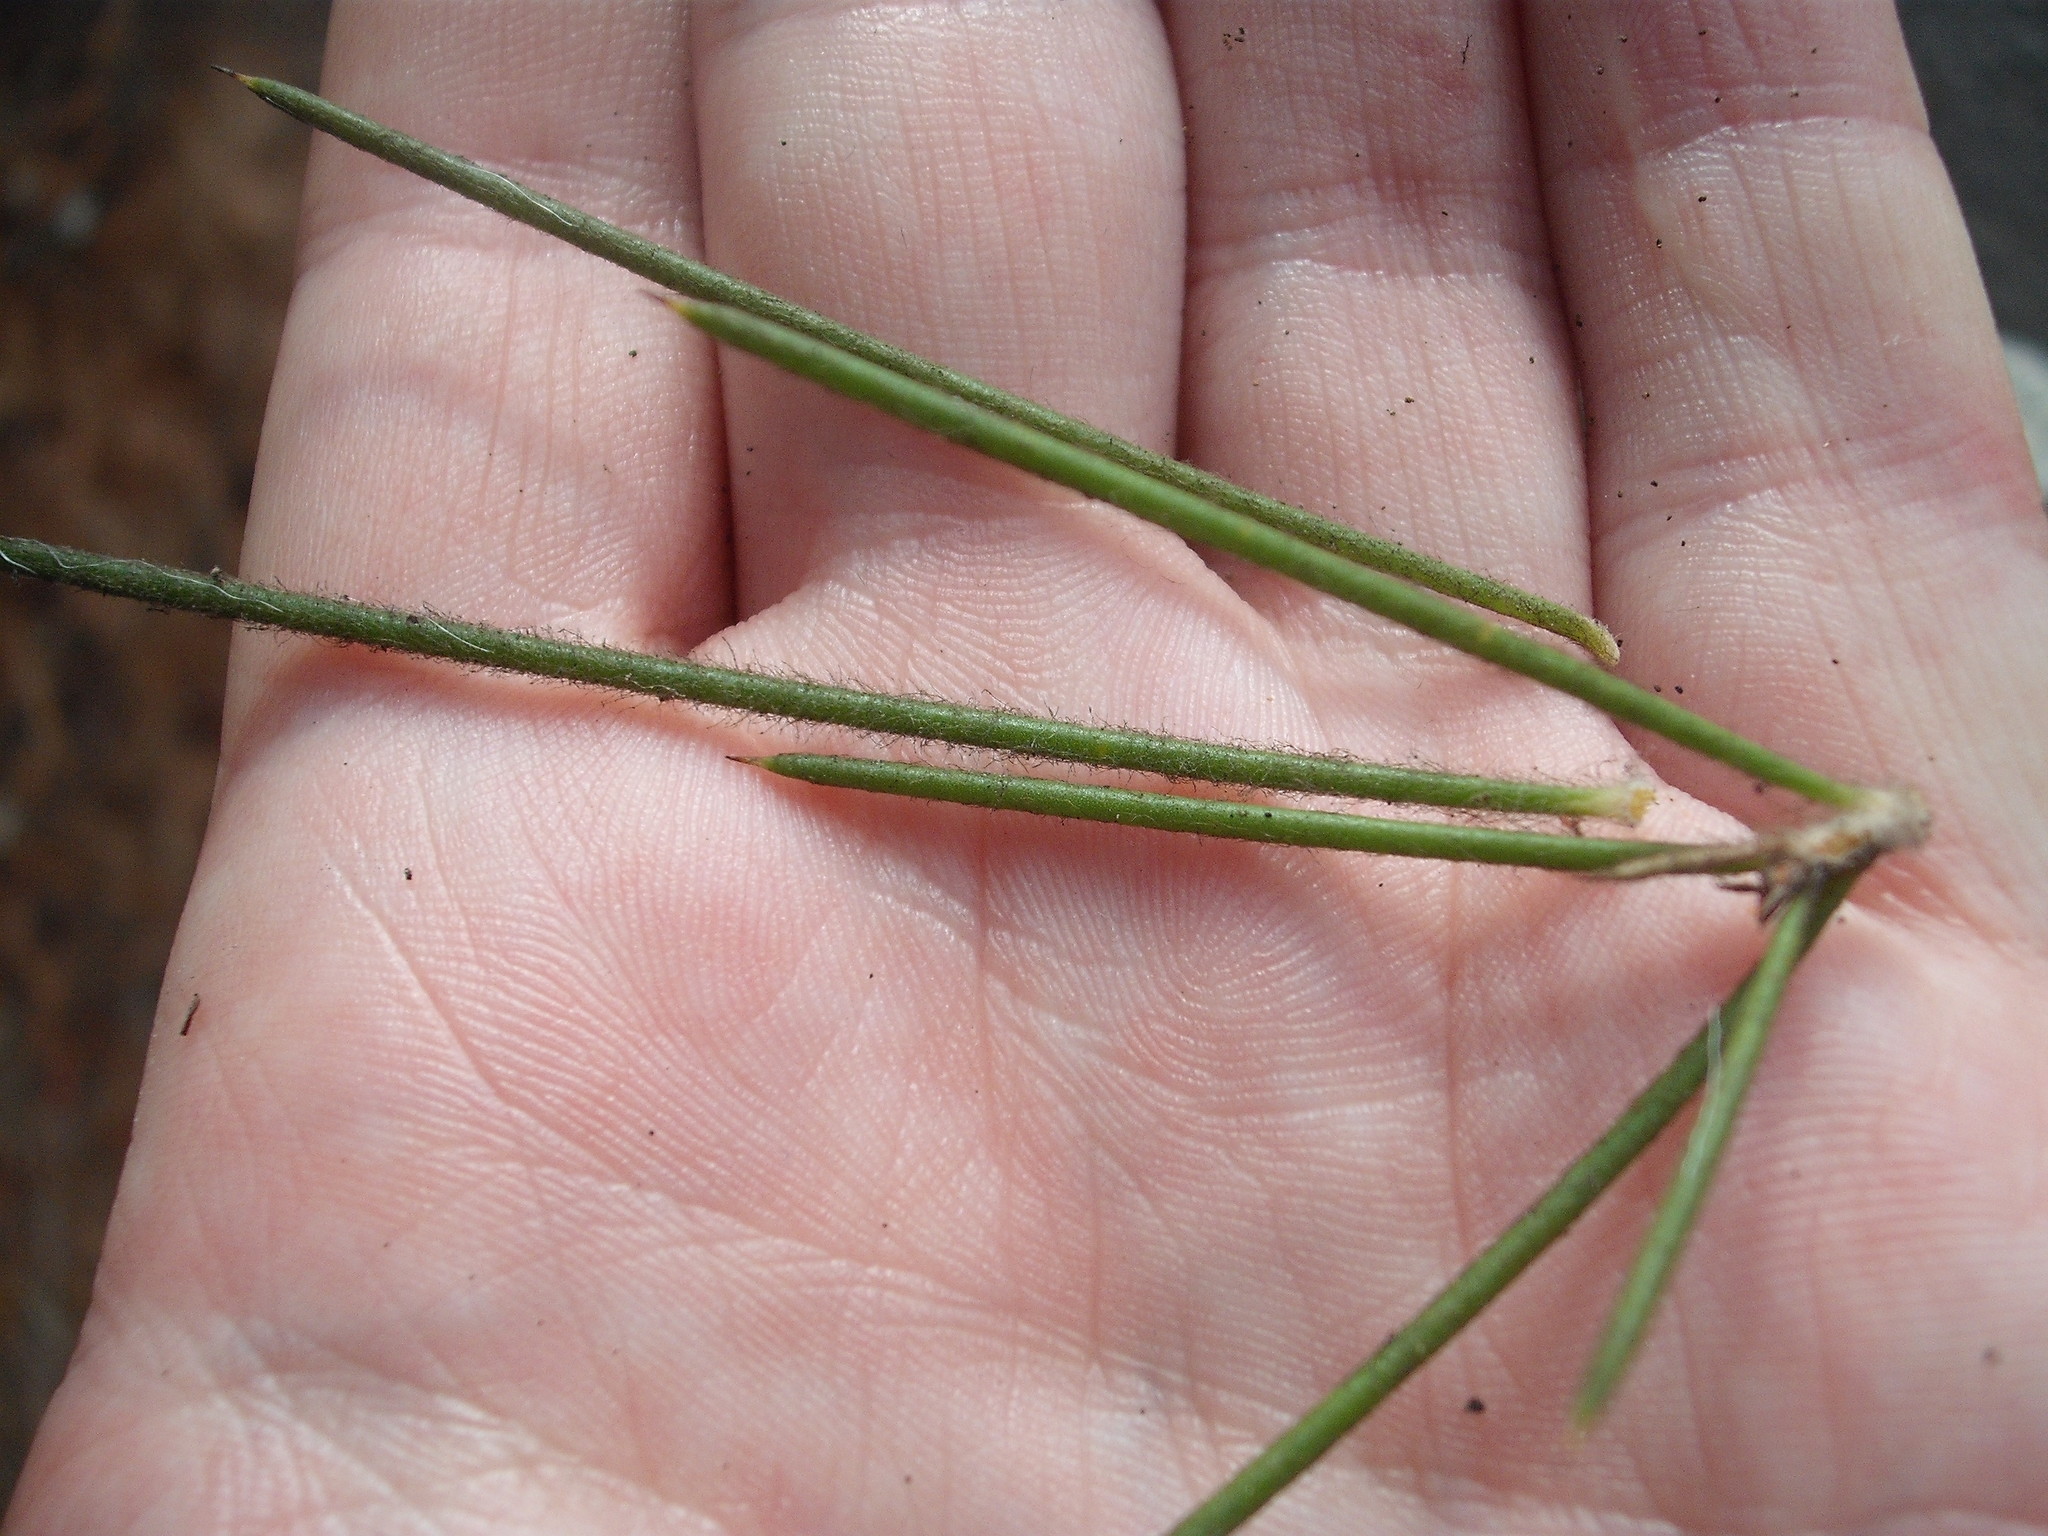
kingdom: Plantae
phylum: Tracheophyta
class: Magnoliopsida
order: Proteales
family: Proteaceae
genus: Hakea
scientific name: Hakea gibbosa
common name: Rock hakea
